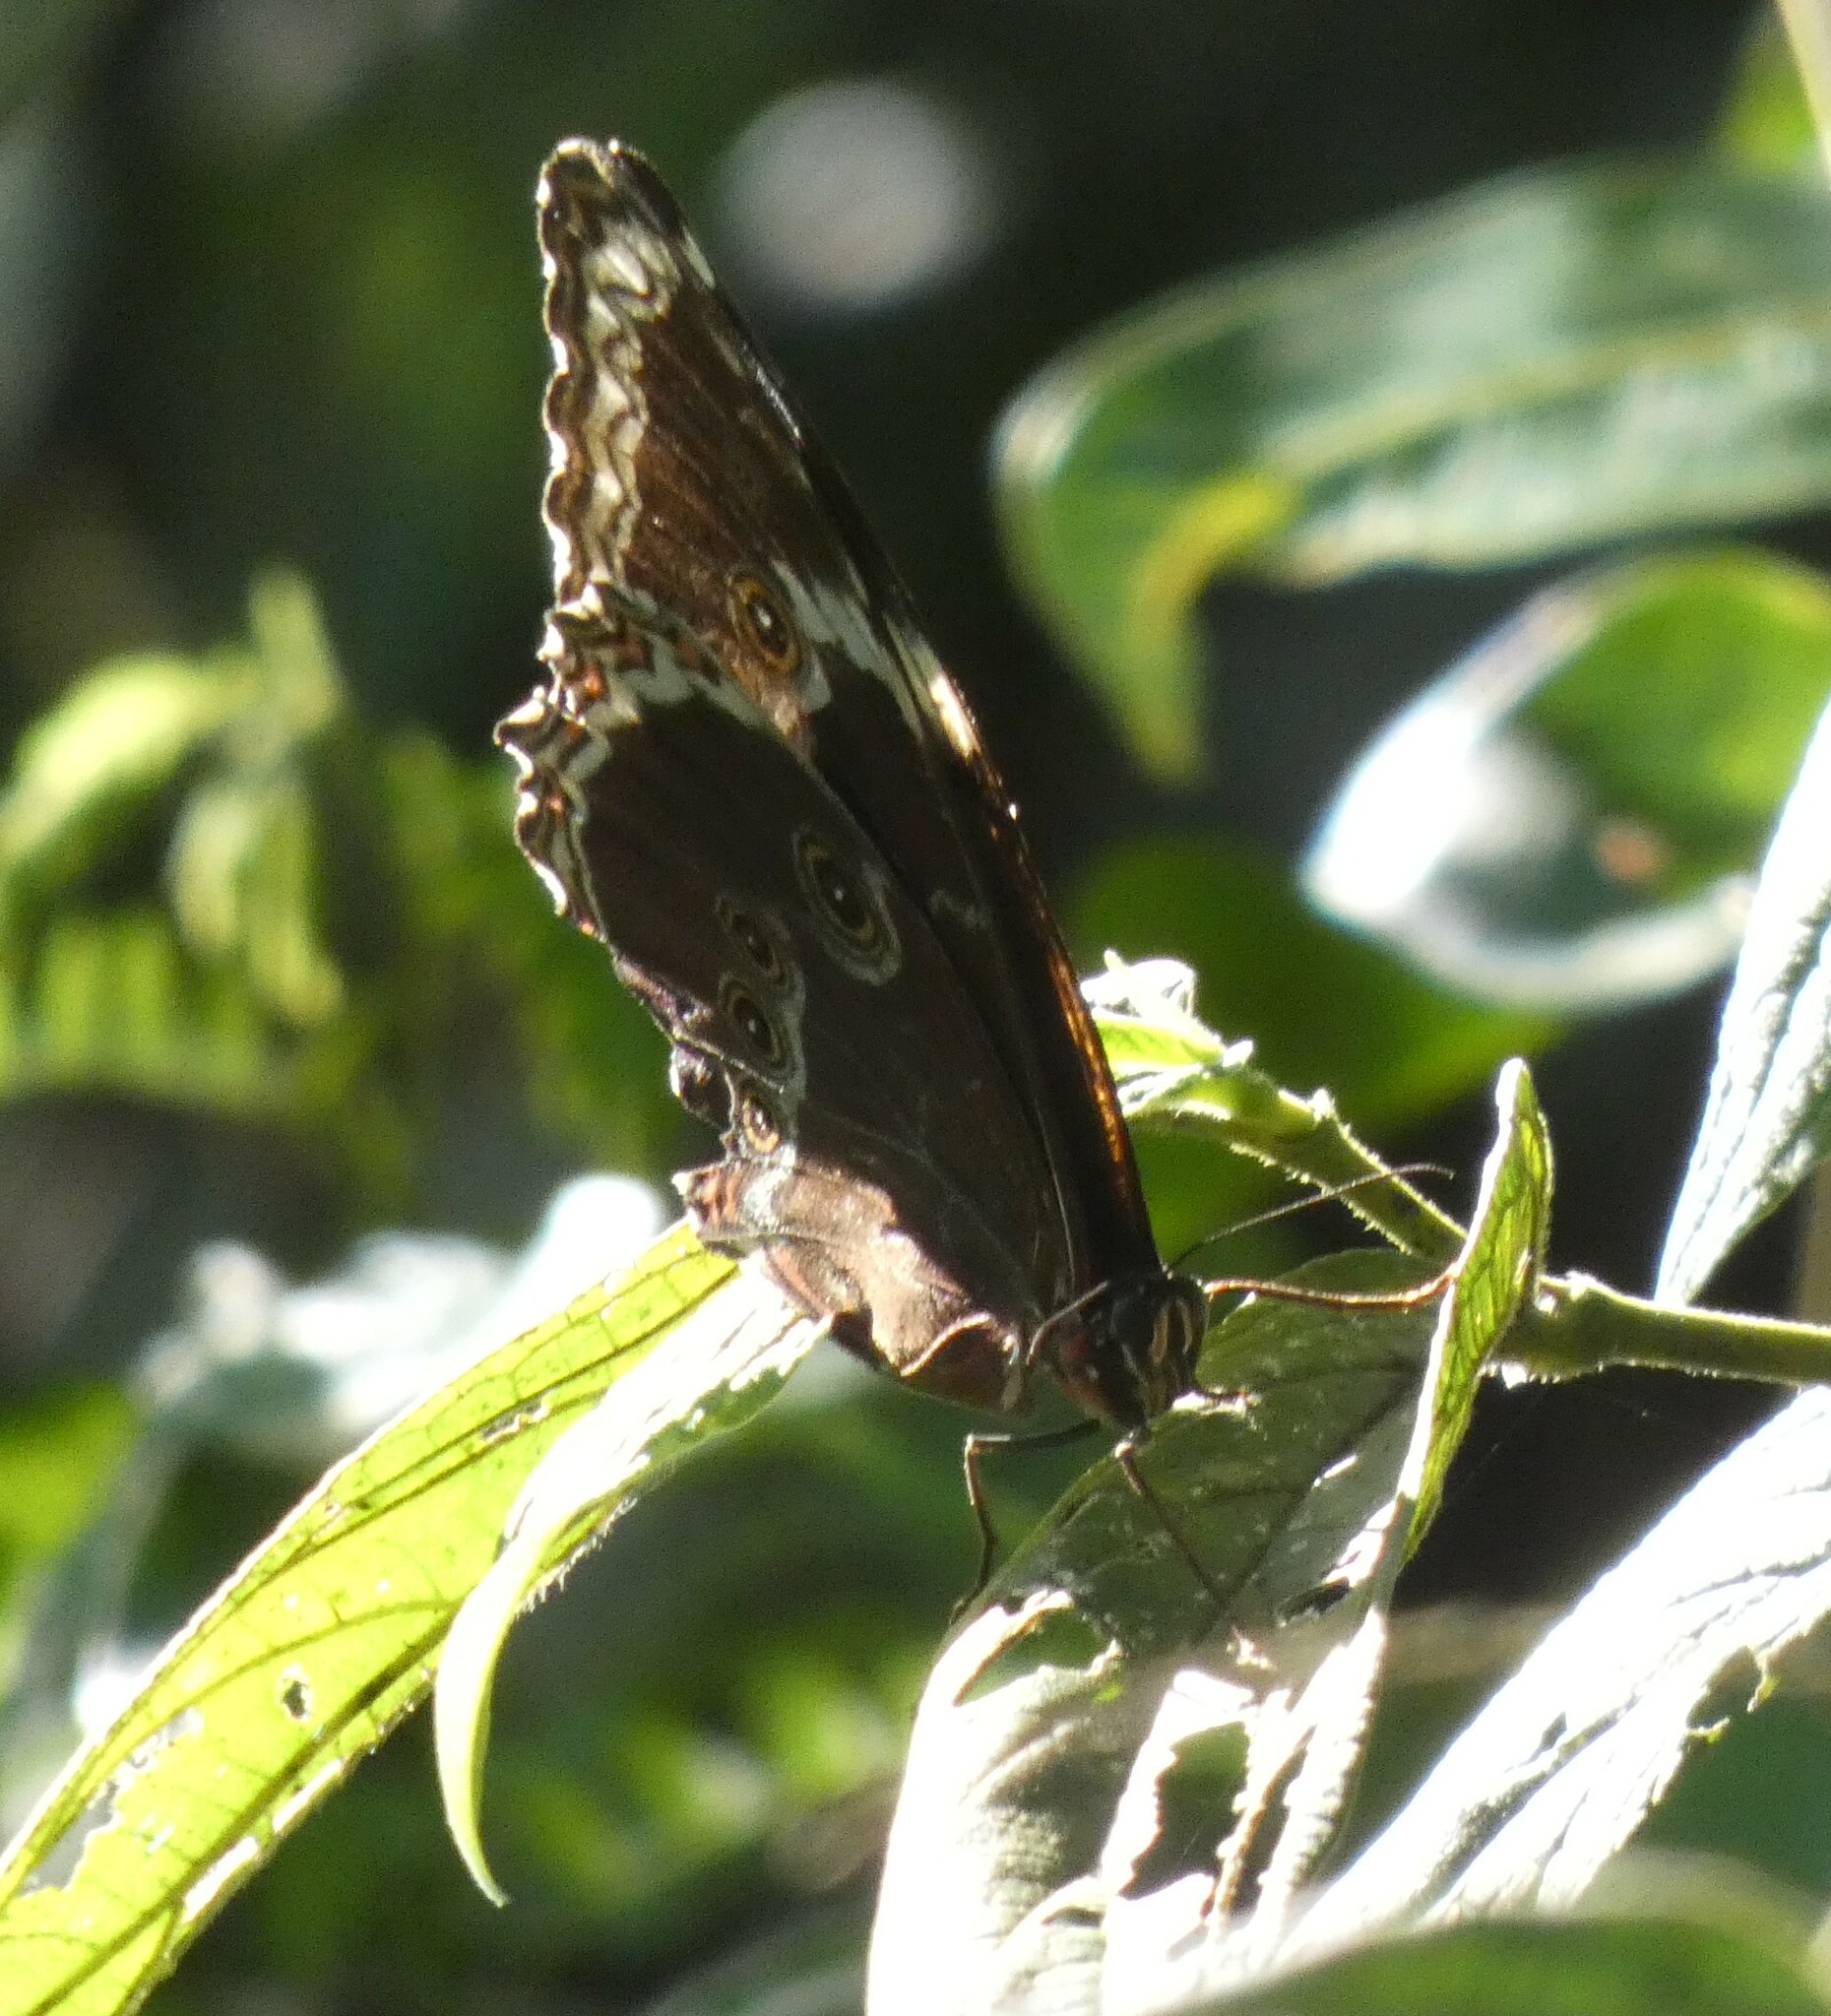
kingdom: Animalia
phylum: Arthropoda
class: Insecta
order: Lepidoptera
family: Nymphalidae
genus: Morpho
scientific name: Morpho helenor
